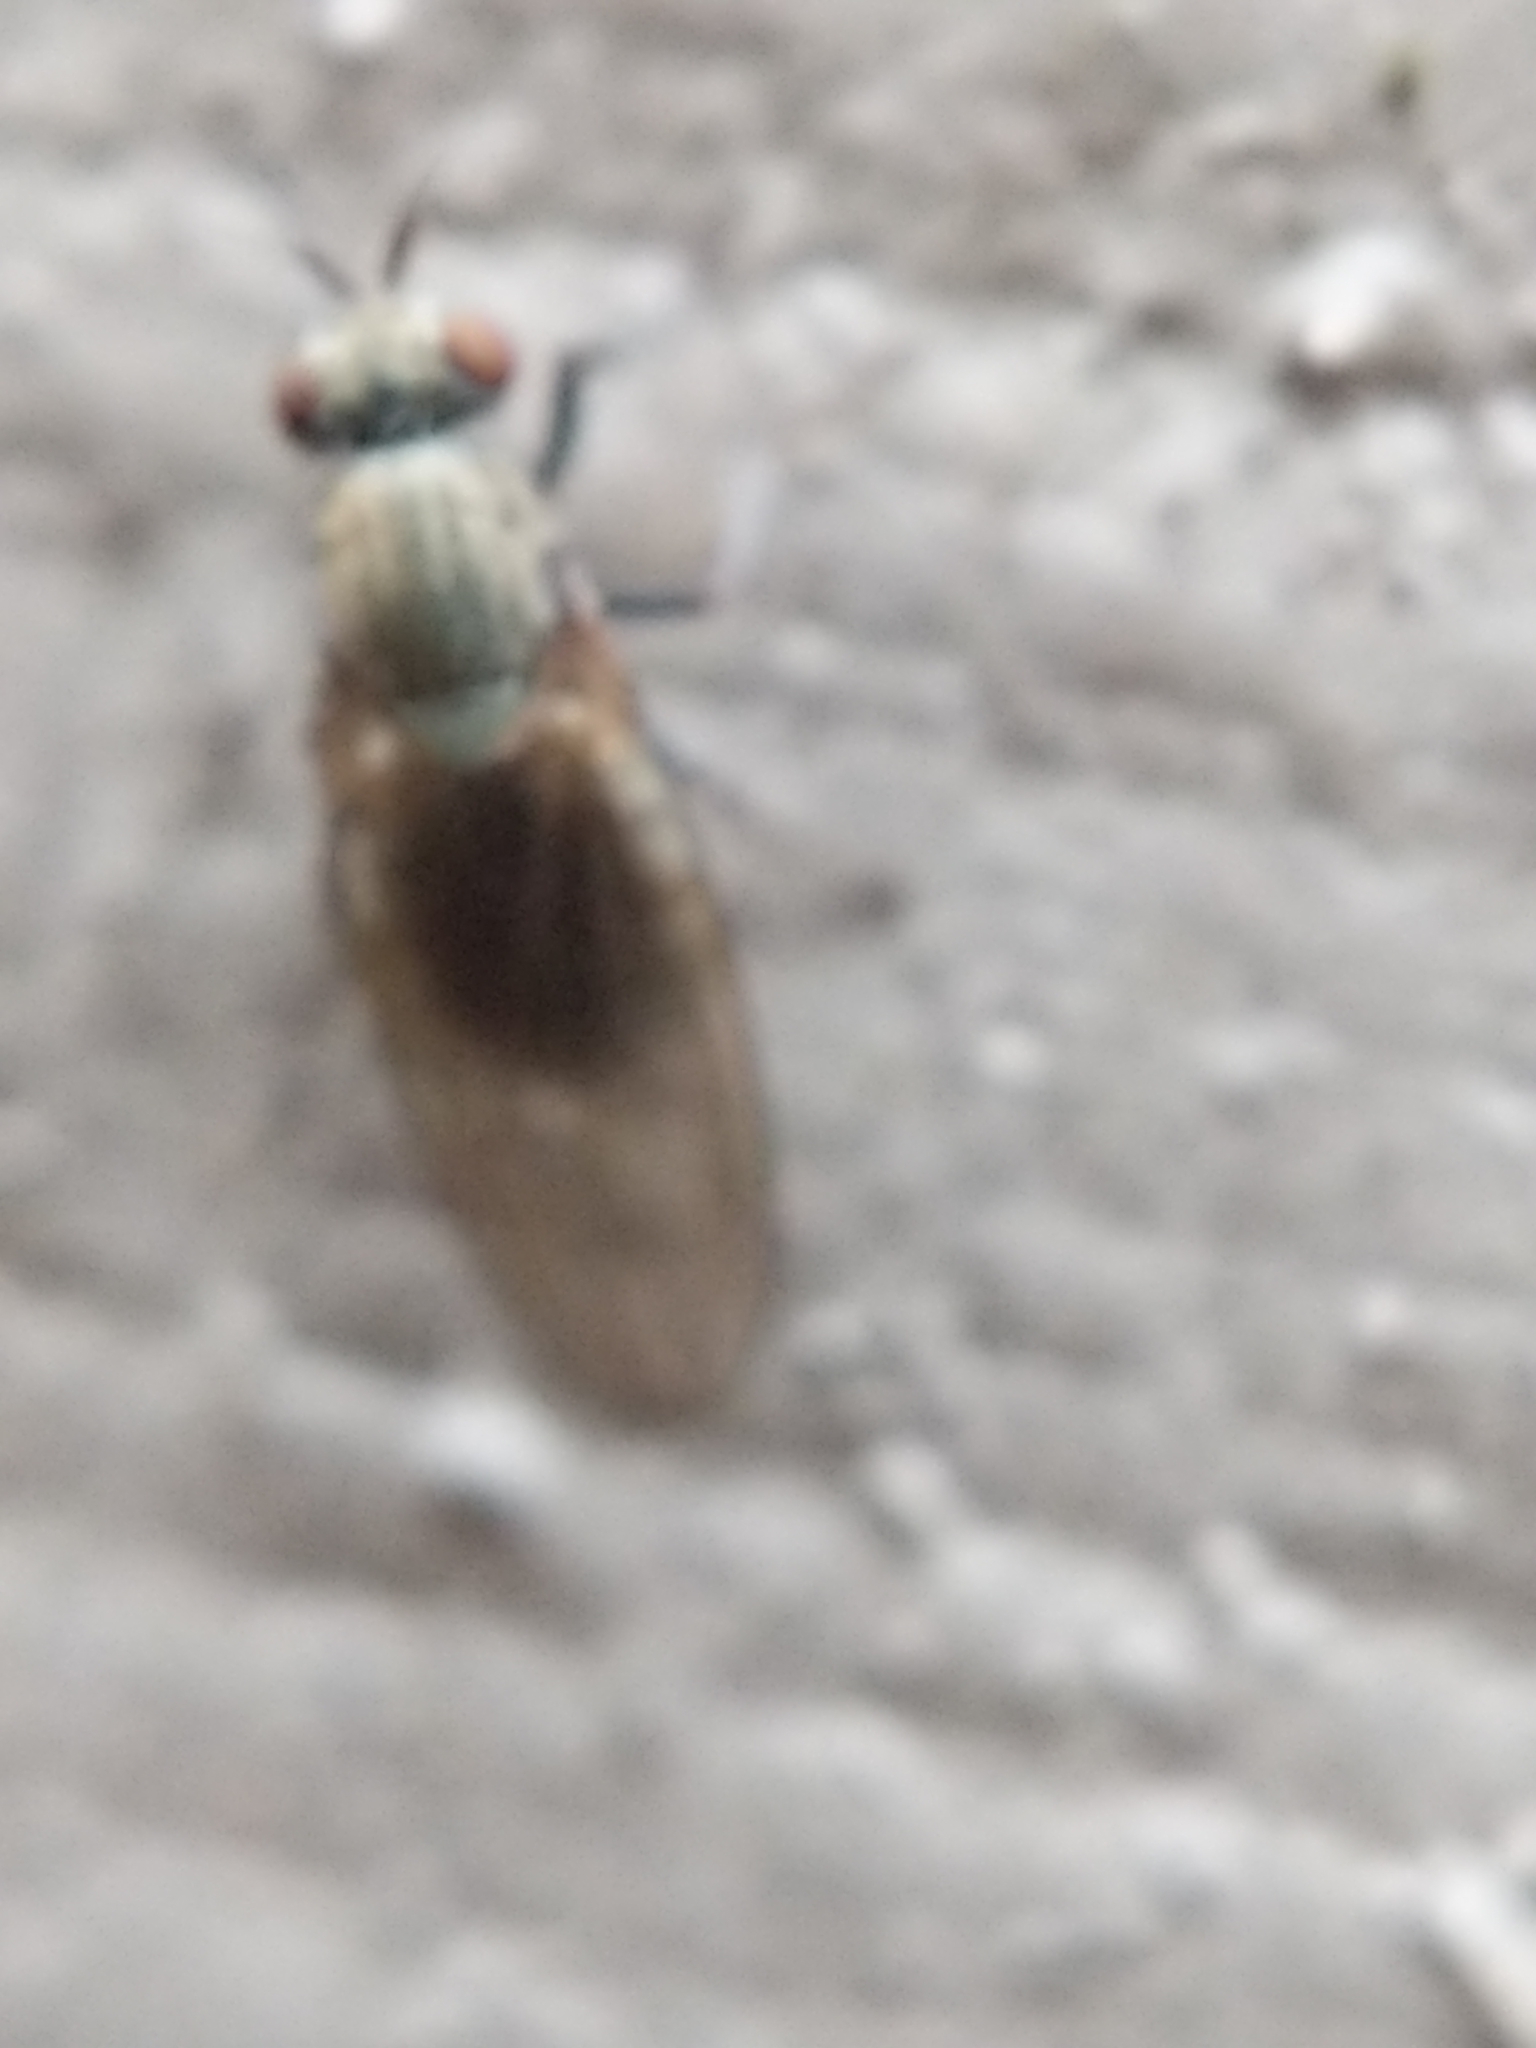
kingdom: Animalia
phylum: Arthropoda
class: Insecta
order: Diptera
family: Lauxaniidae
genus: Sapromyza
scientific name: Sapromyza brachysoma
